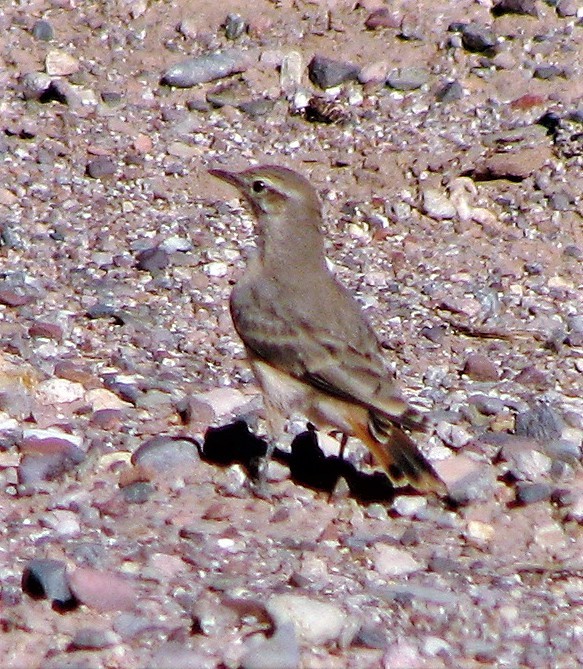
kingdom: Animalia
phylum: Chordata
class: Aves
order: Passeriformes
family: Furnariidae
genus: Geositta
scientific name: Geositta rufipennis
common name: Rufous-banded miner
